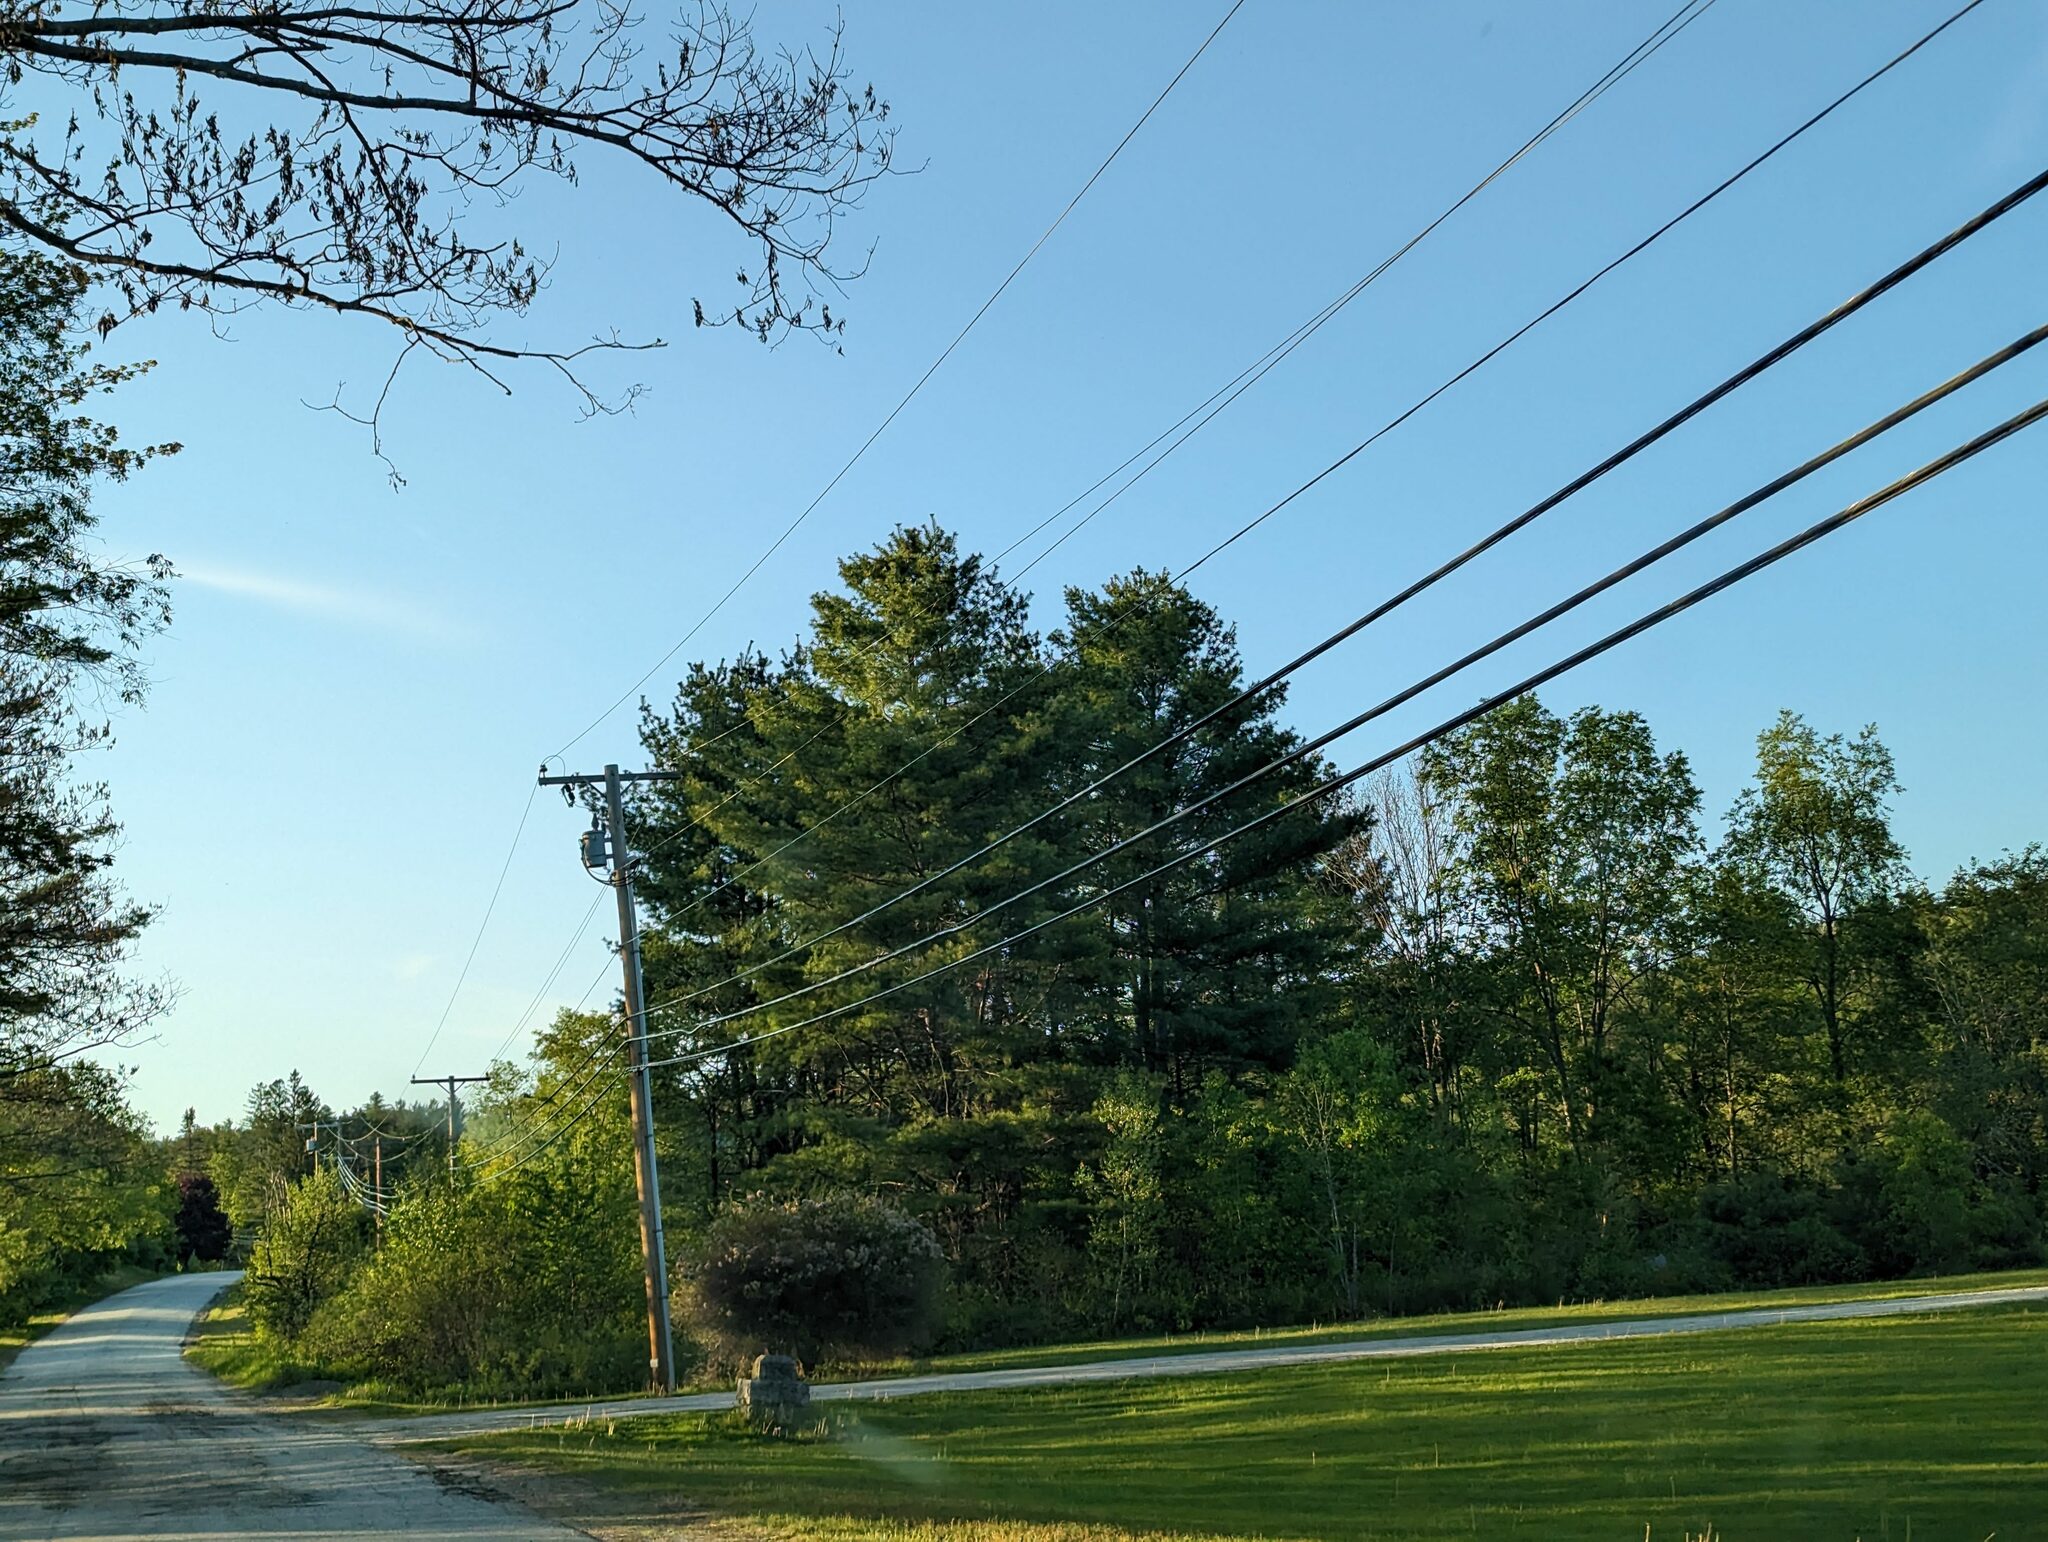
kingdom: Plantae
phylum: Tracheophyta
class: Pinopsida
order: Pinales
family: Pinaceae
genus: Pinus
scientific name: Pinus strobus
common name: Weymouth pine
